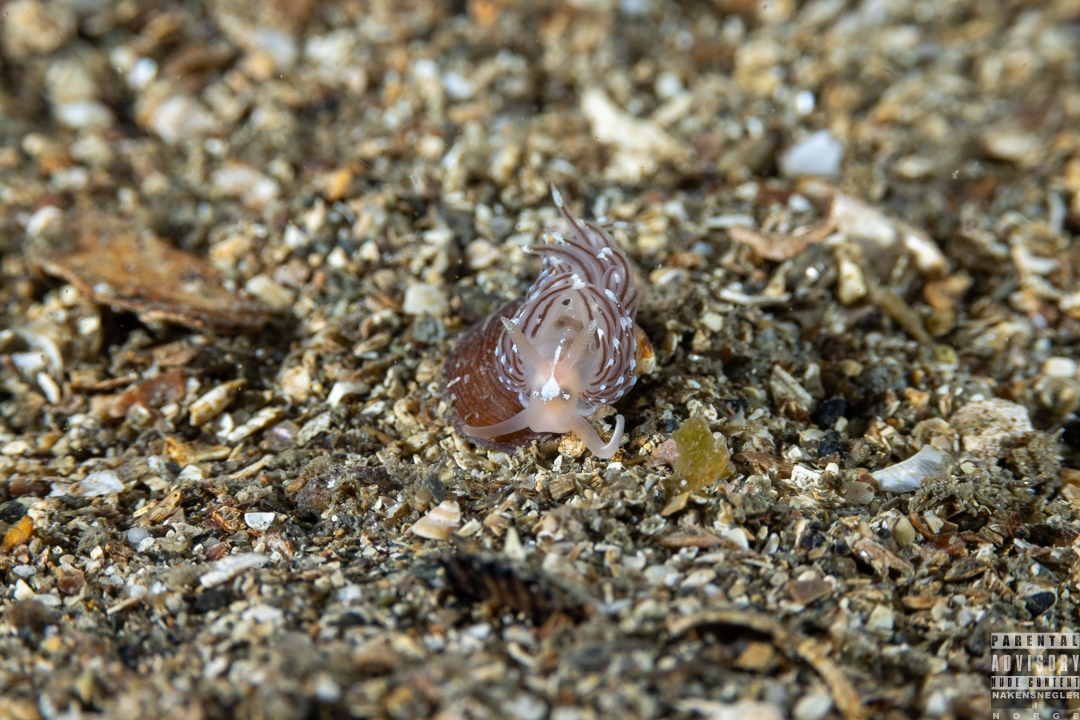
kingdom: Animalia
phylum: Mollusca
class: Gastropoda
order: Nudibranchia
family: Facelinidae
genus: Facelina
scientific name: Facelina bostoniensis
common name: Boston facelina
